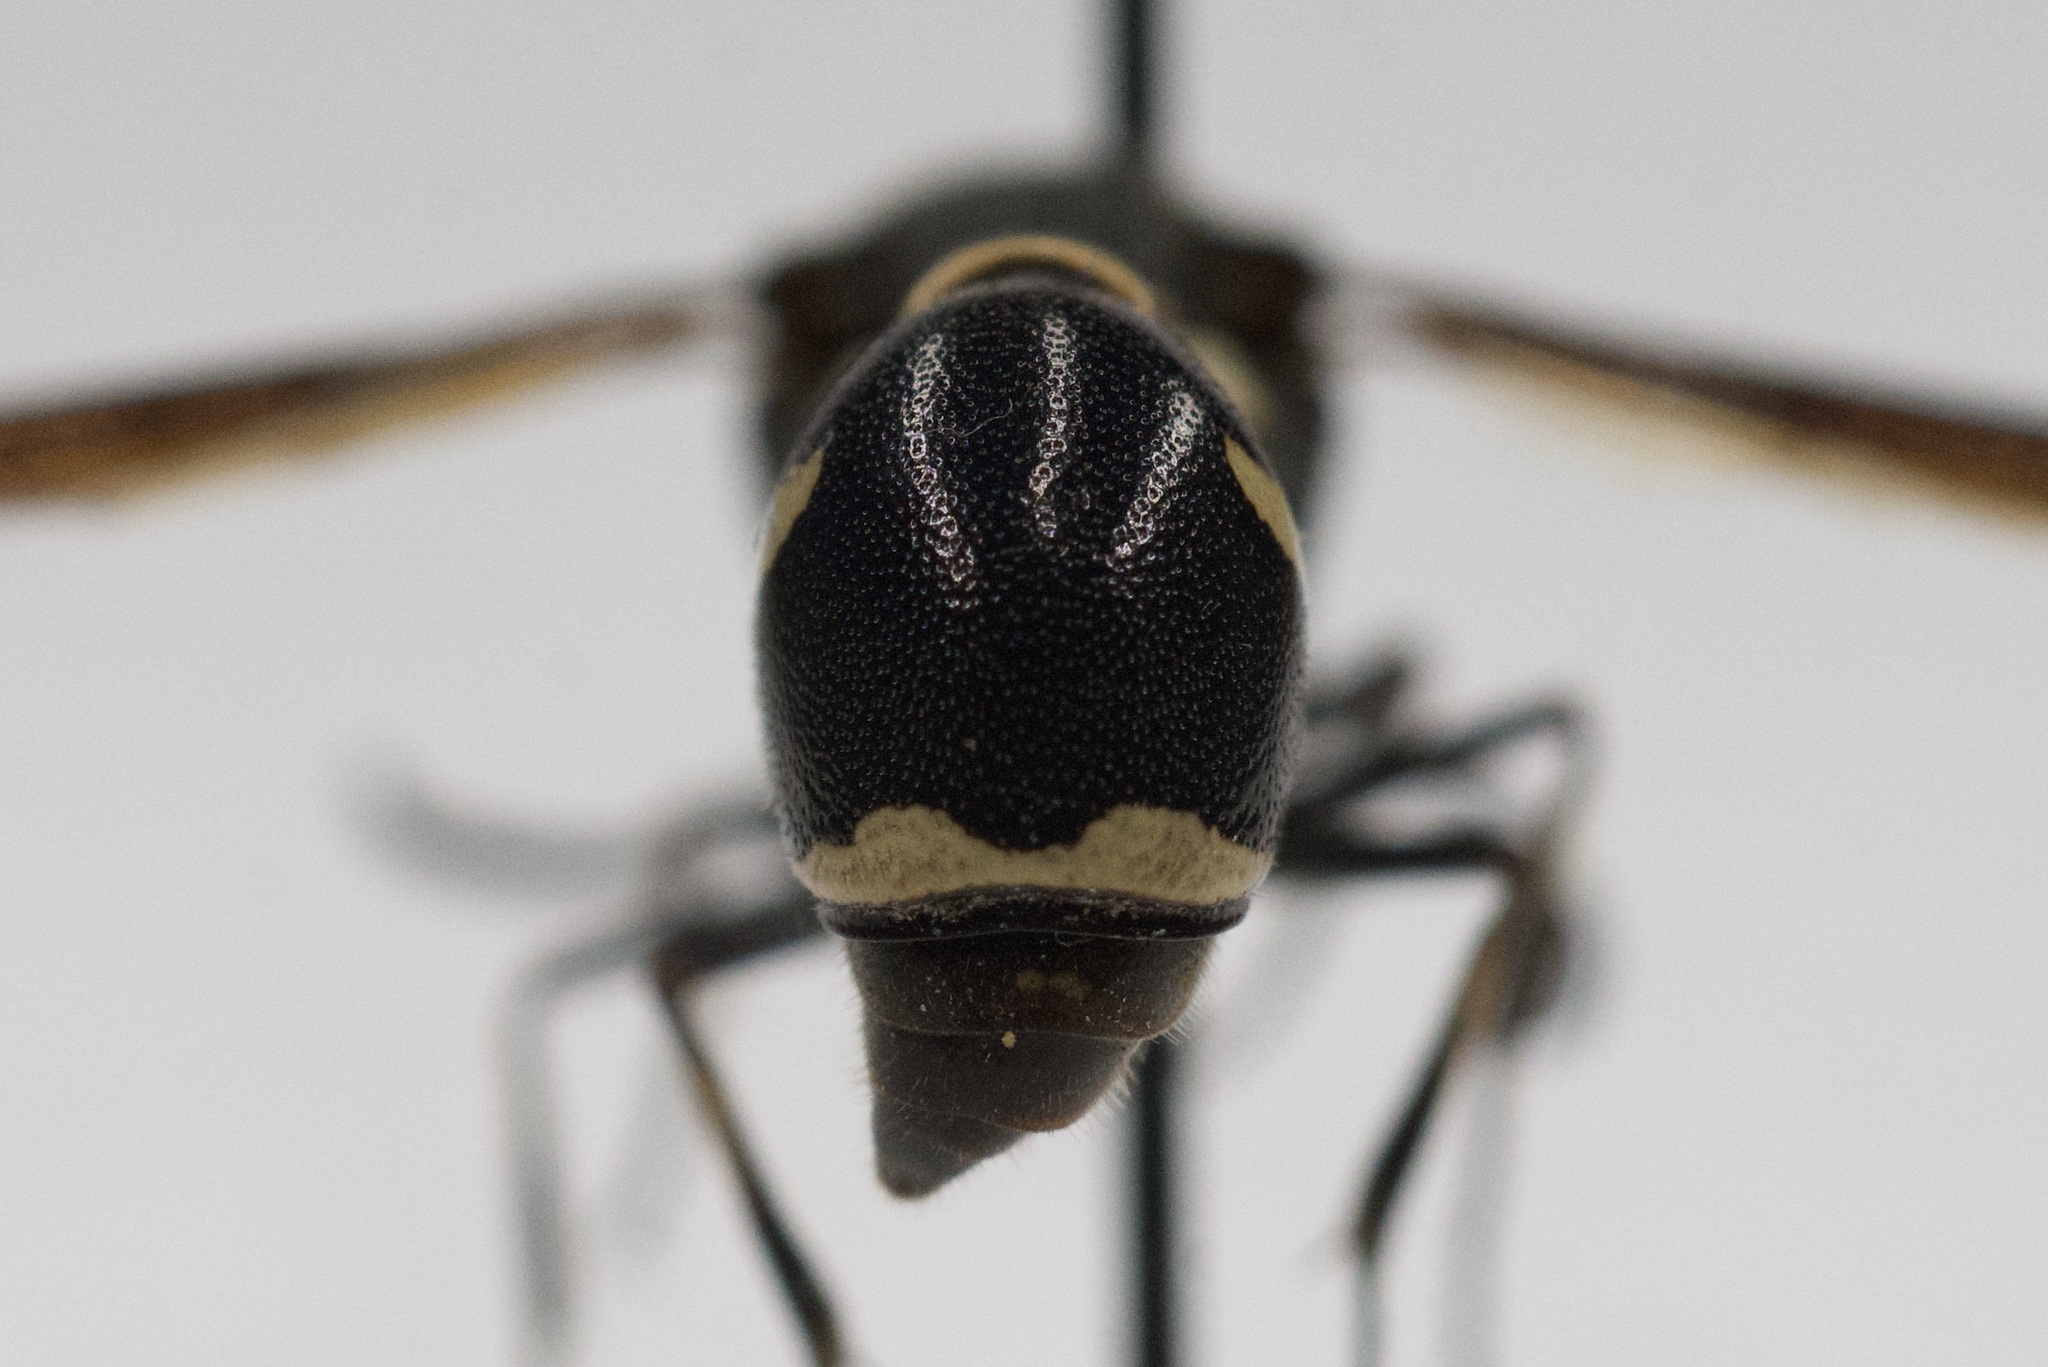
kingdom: Animalia
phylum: Arthropoda
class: Insecta
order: Hymenoptera
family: Vespidae
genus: Eumenes
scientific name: Eumenes fraternus
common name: Fraternal potter wasp
